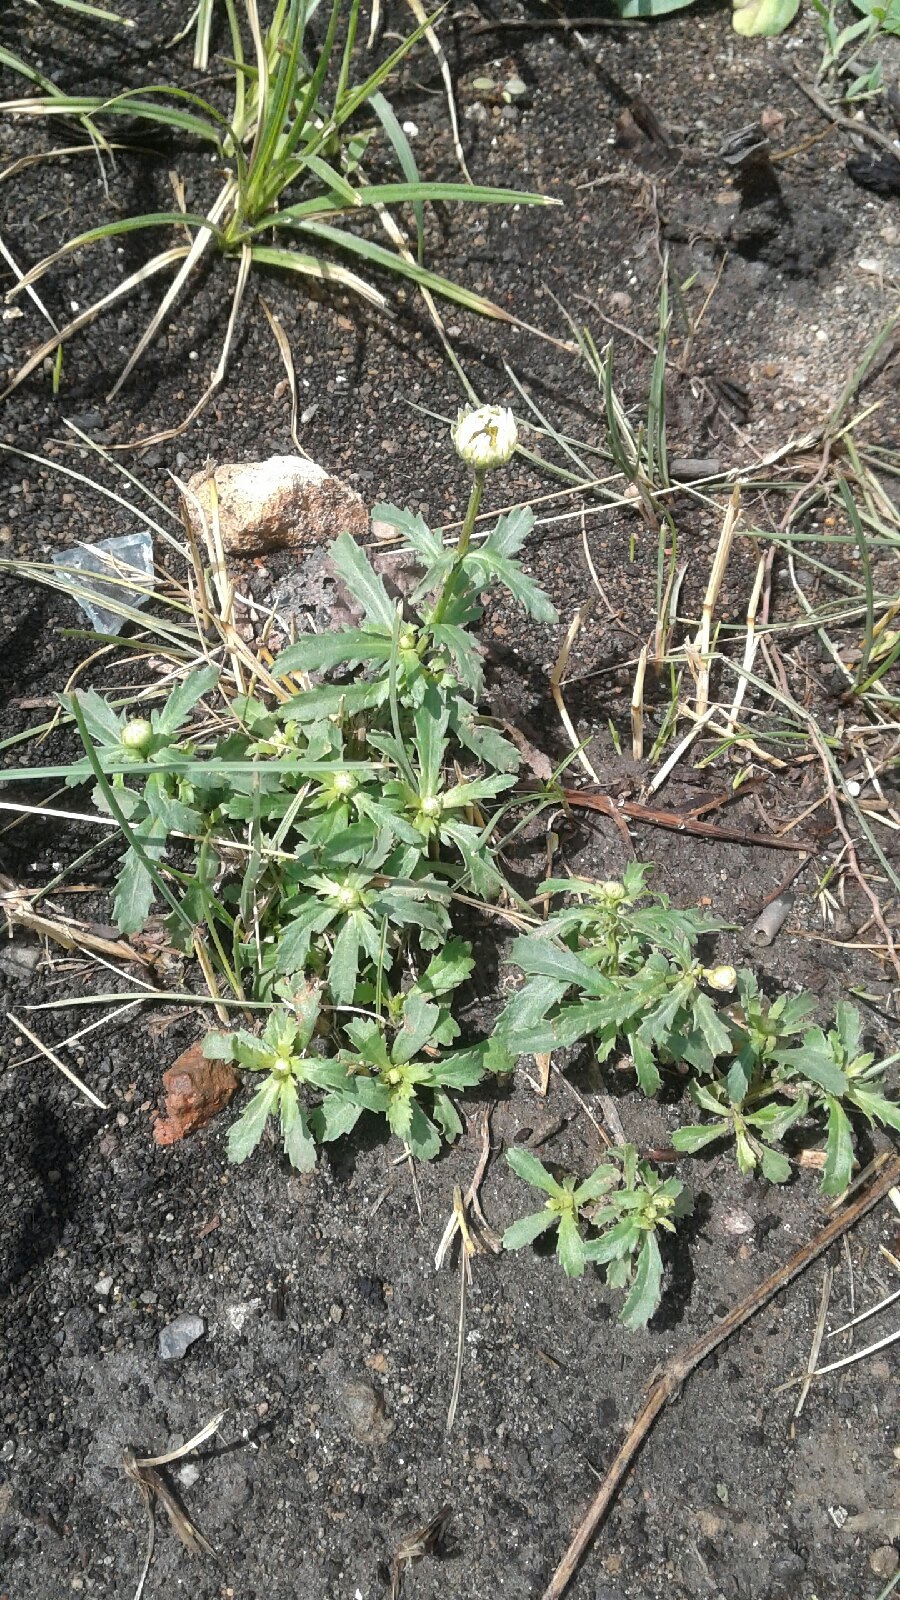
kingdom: Plantae
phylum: Tracheophyta
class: Magnoliopsida
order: Asterales
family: Asteraceae
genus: Leucanthemum
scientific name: Leucanthemum vulgare
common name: Oxeye daisy
